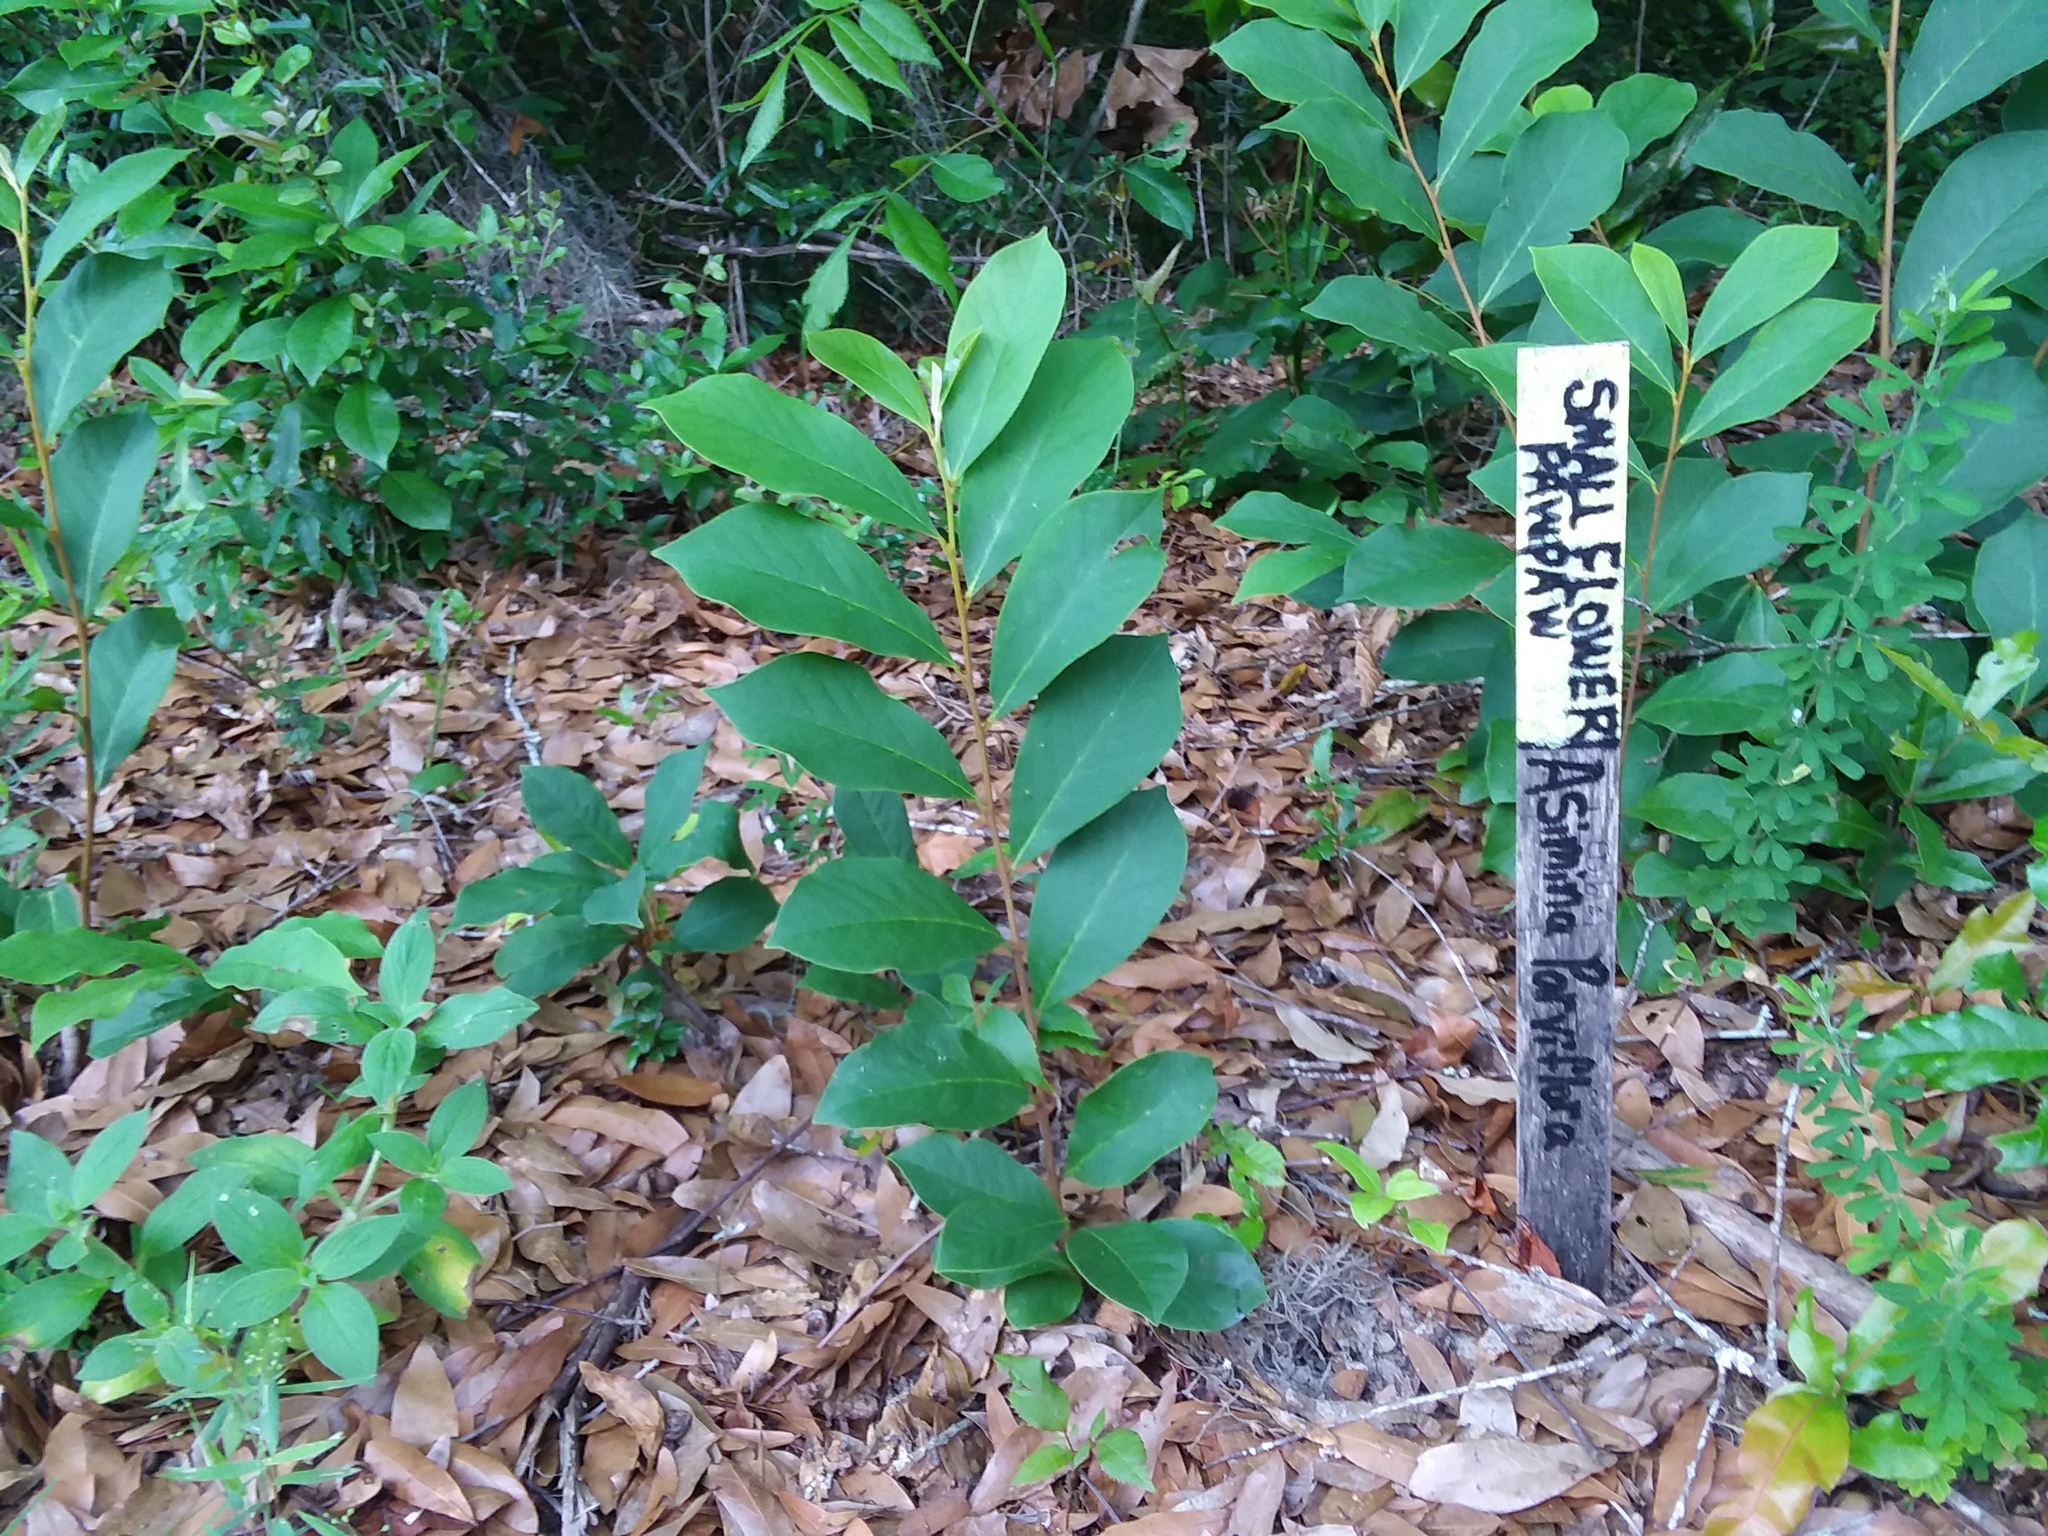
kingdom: Plantae
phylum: Tracheophyta
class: Magnoliopsida
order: Magnoliales
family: Annonaceae
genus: Asimina
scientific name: Asimina parviflora
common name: Dwarf pawpaw
